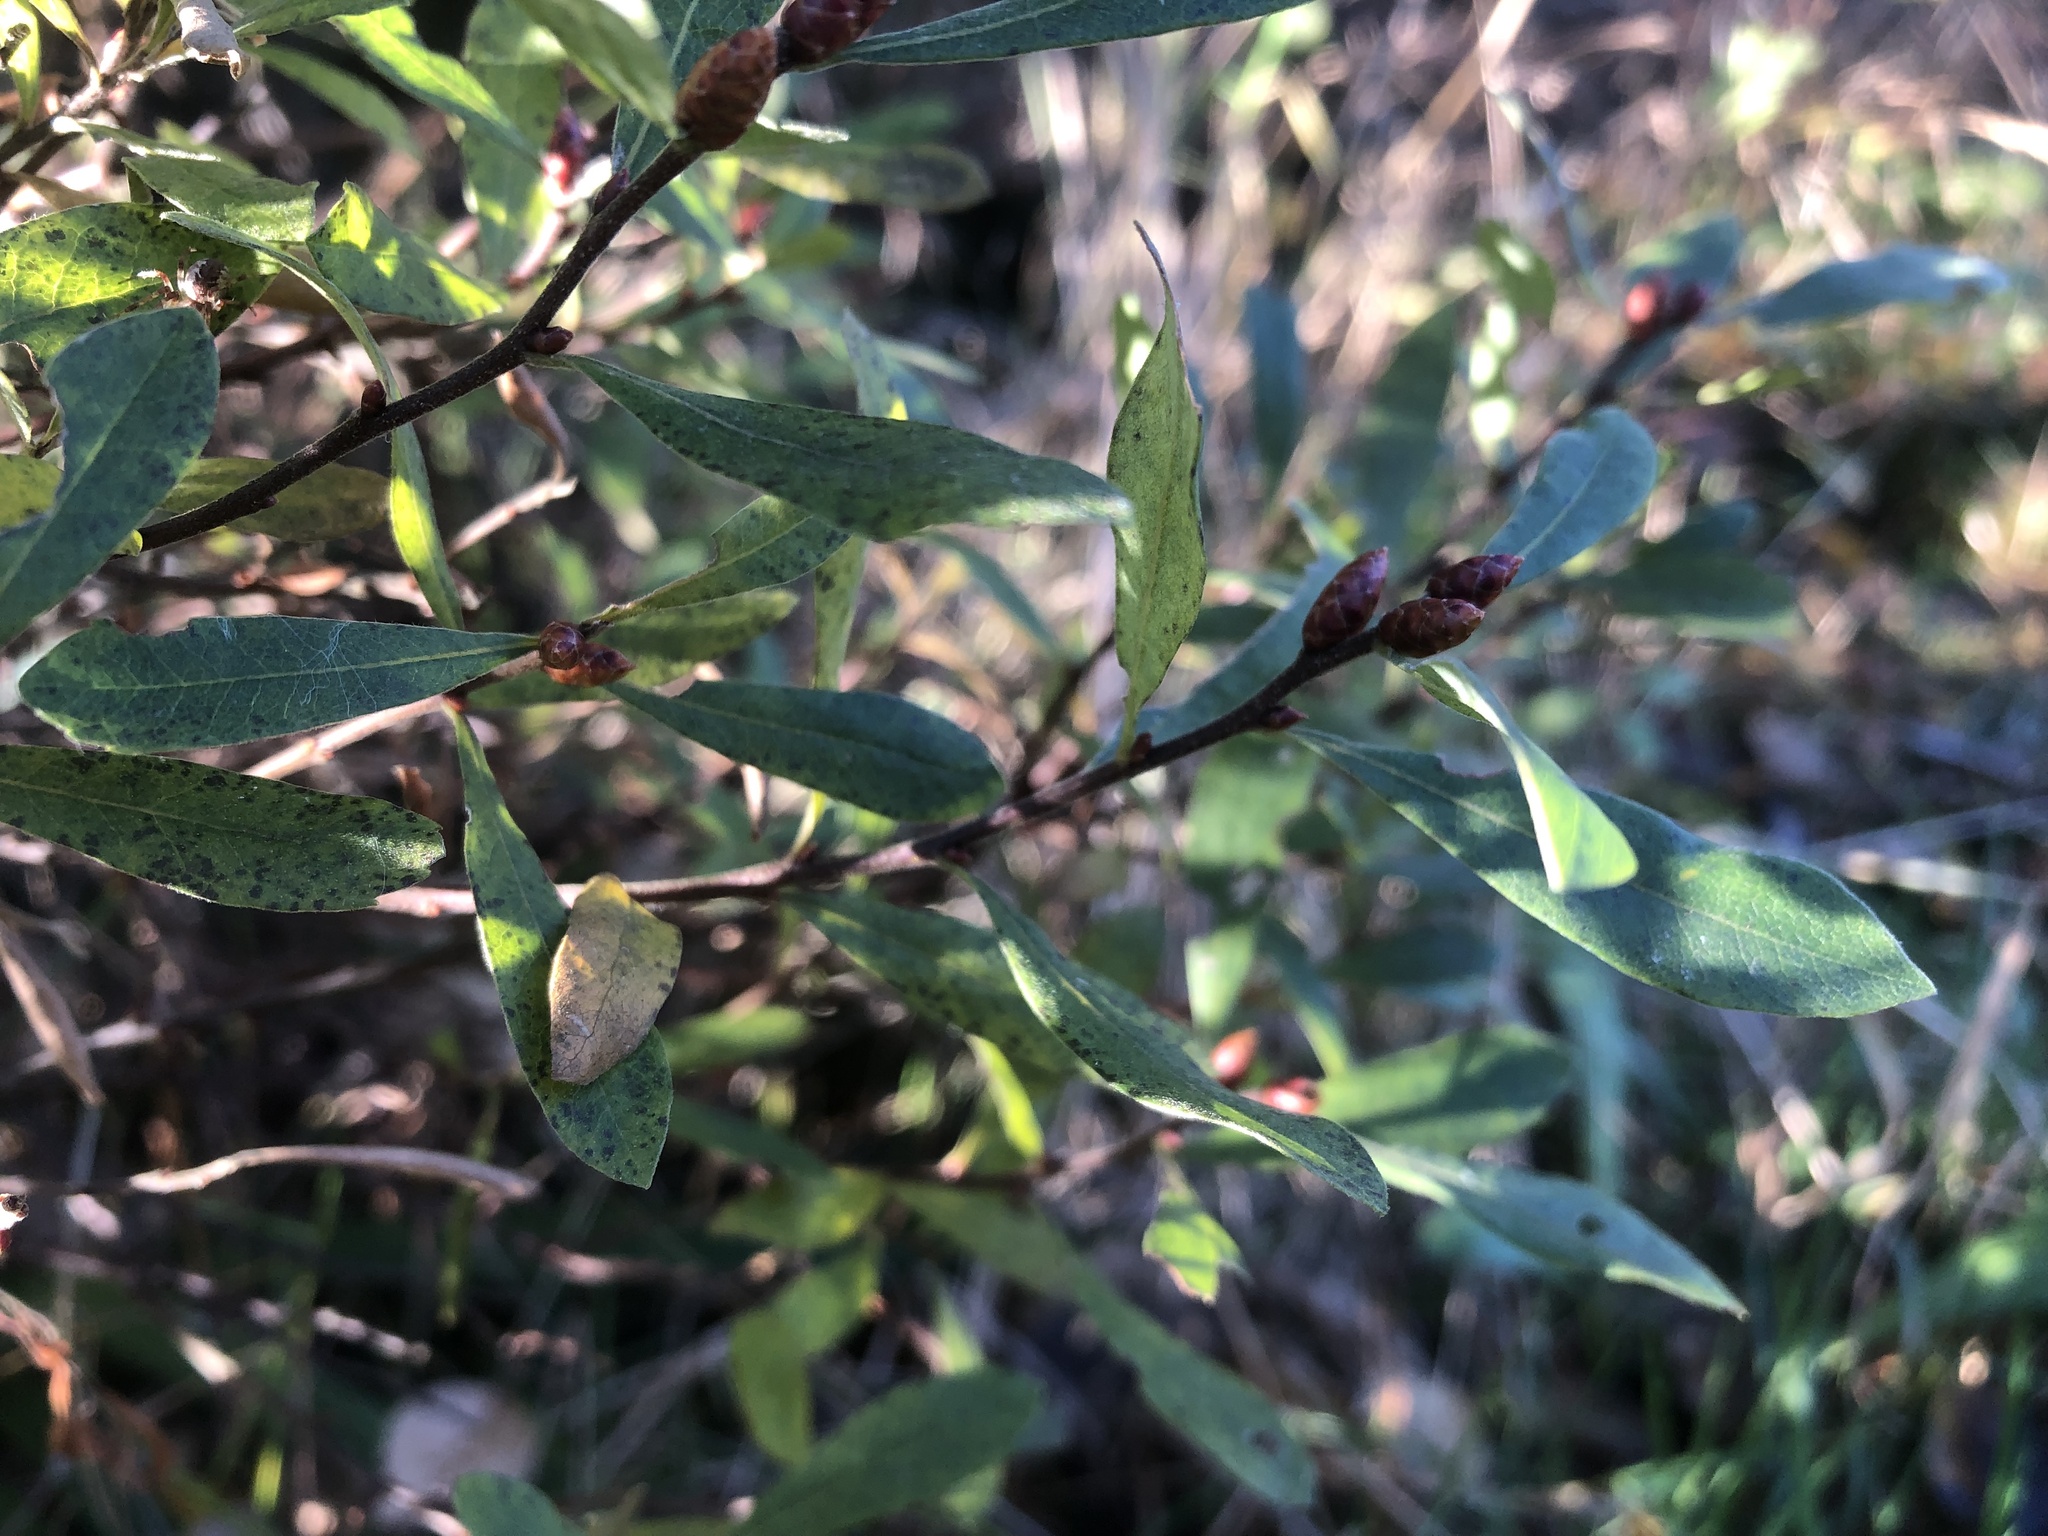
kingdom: Plantae
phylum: Tracheophyta
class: Magnoliopsida
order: Fagales
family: Myricaceae
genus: Myrica
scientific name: Myrica gale
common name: Sweet gale
